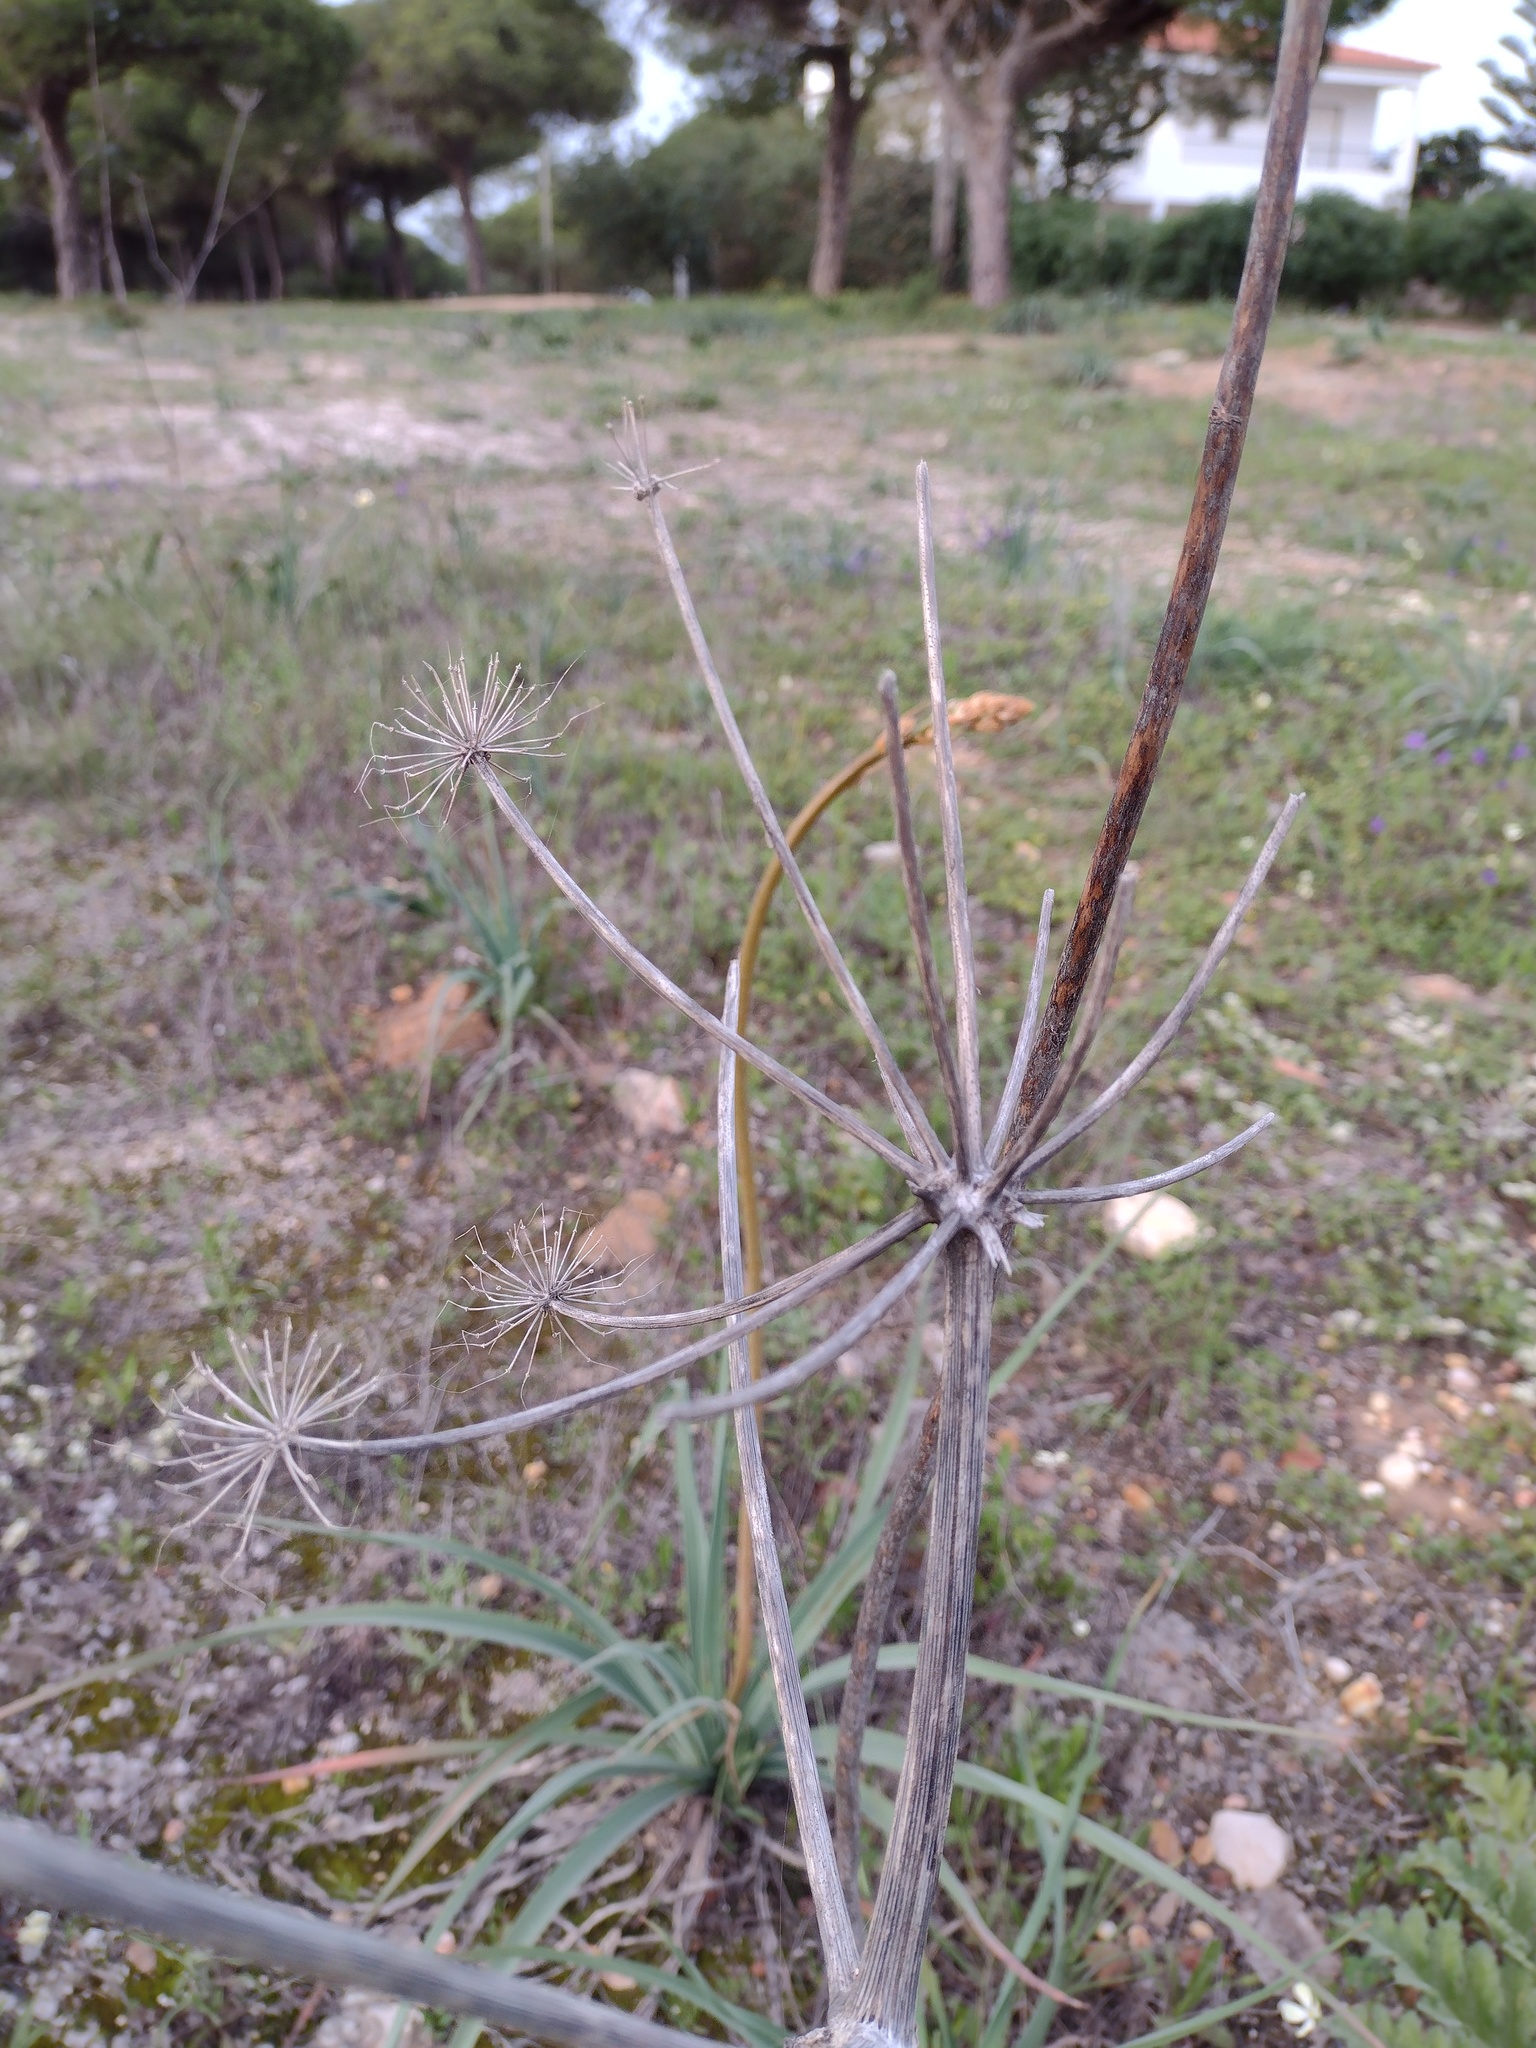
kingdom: Plantae
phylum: Tracheophyta
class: Magnoliopsida
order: Apiales
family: Apiaceae
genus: Thapsia
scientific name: Thapsia villosa
